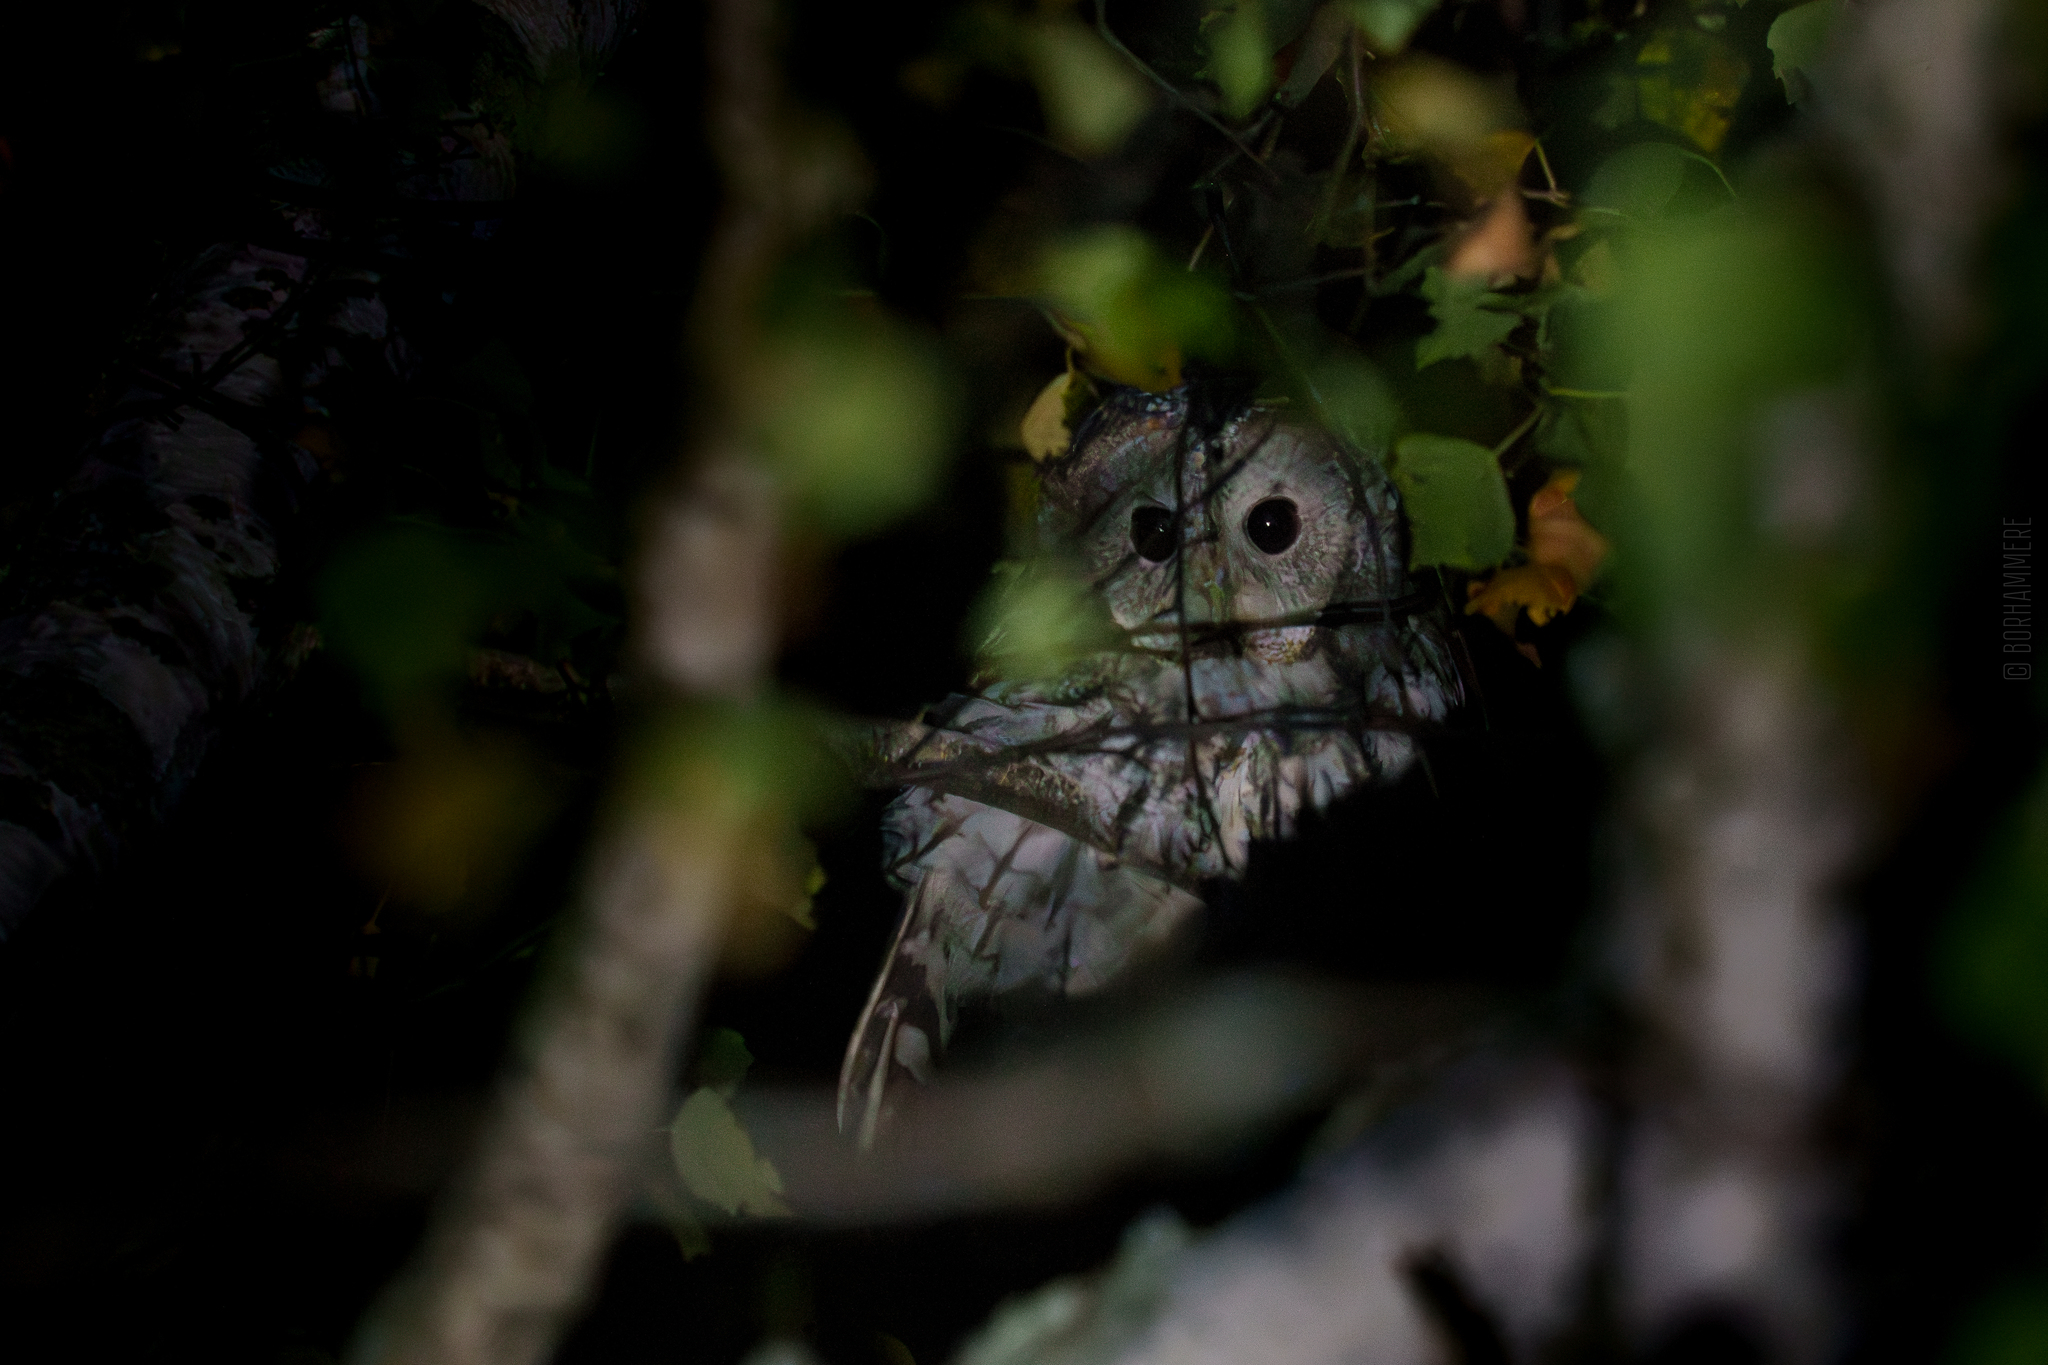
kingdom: Animalia
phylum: Chordata
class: Aves
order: Strigiformes
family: Strigidae
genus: Strix
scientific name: Strix aluco
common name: Tawny owl
